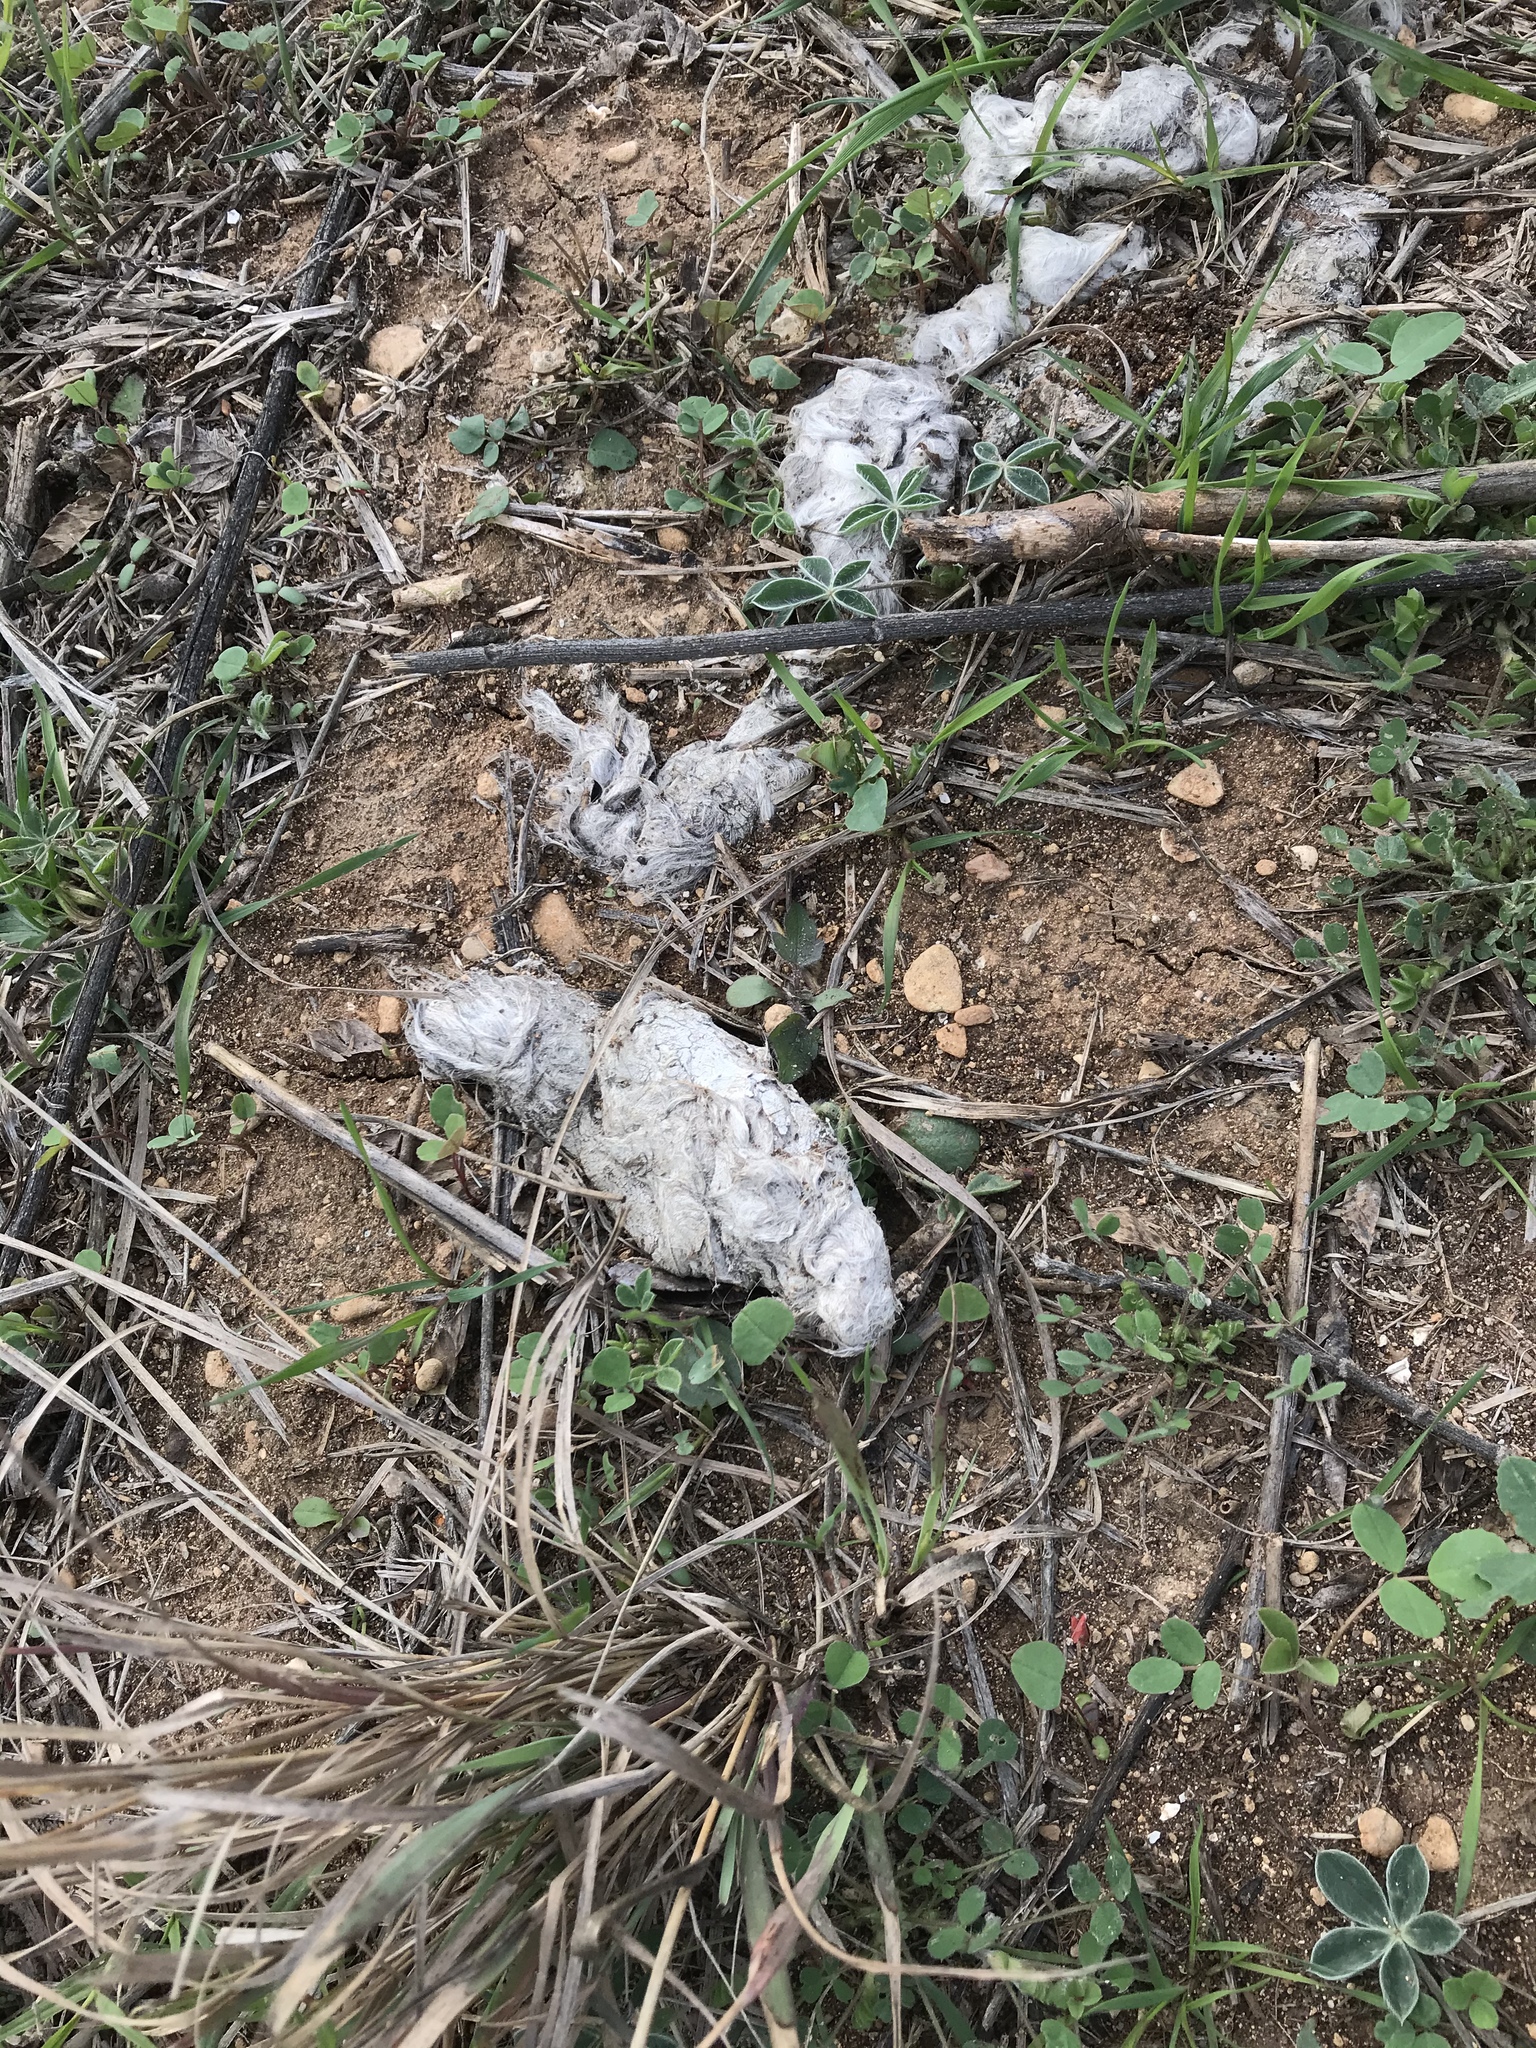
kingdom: Animalia
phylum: Chordata
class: Mammalia
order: Carnivora
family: Canidae
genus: Canis
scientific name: Canis latrans
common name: Coyote
